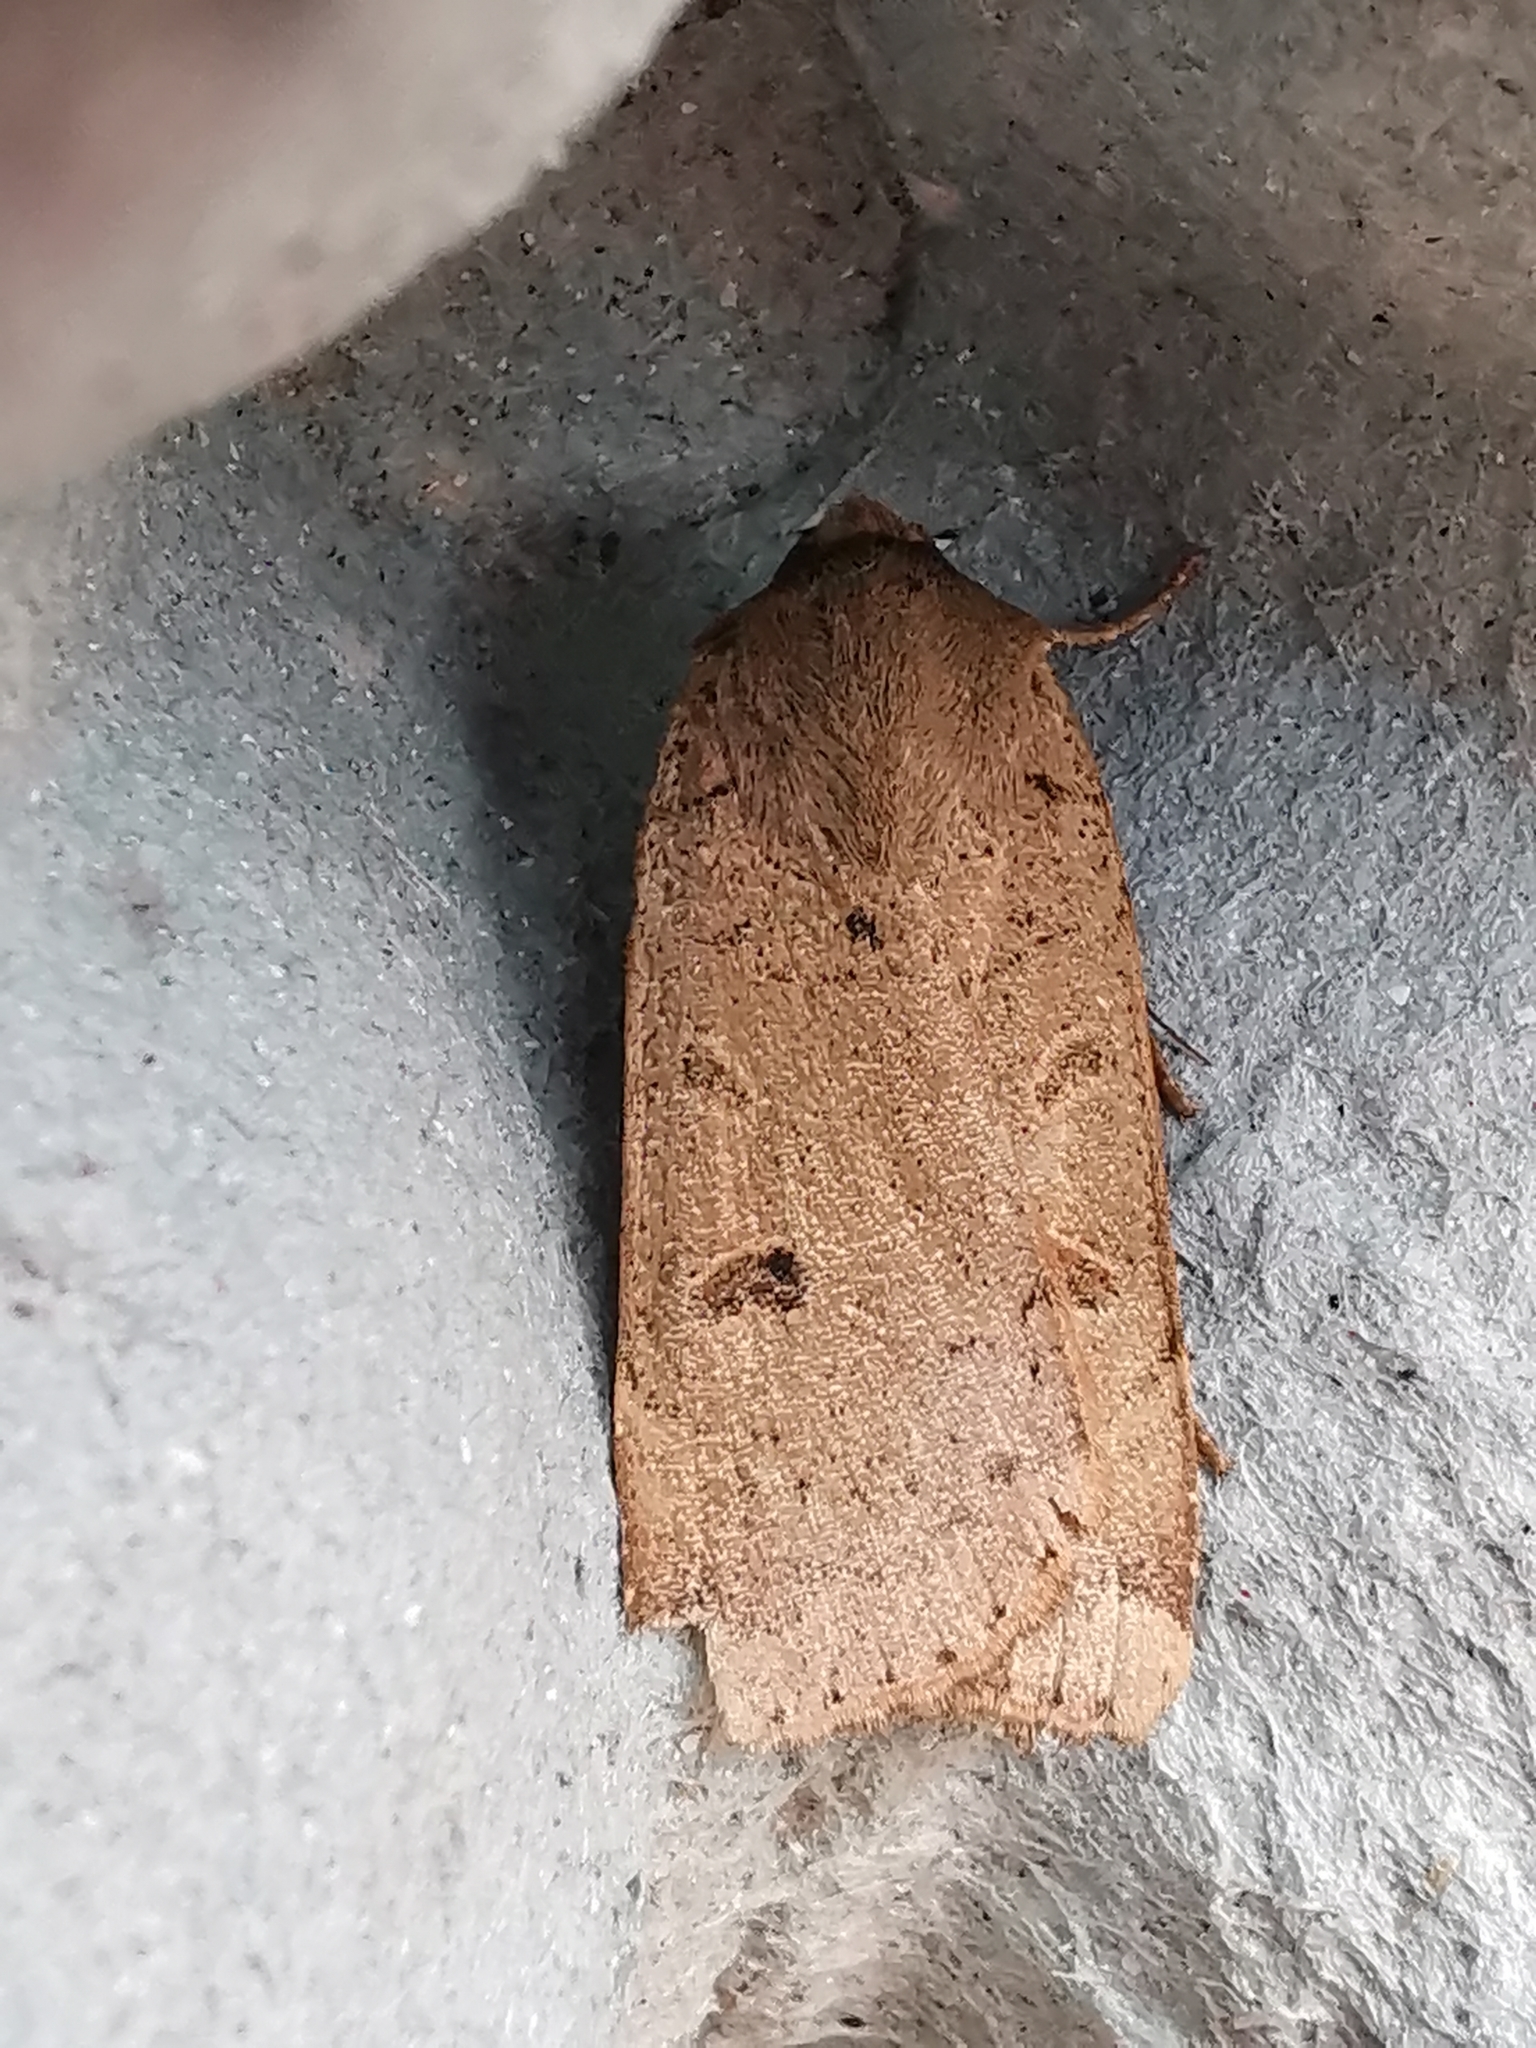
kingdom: Animalia
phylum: Arthropoda
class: Insecta
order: Lepidoptera
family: Noctuidae
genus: Noctua
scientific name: Noctua comes
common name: Lesser yellow underwing
